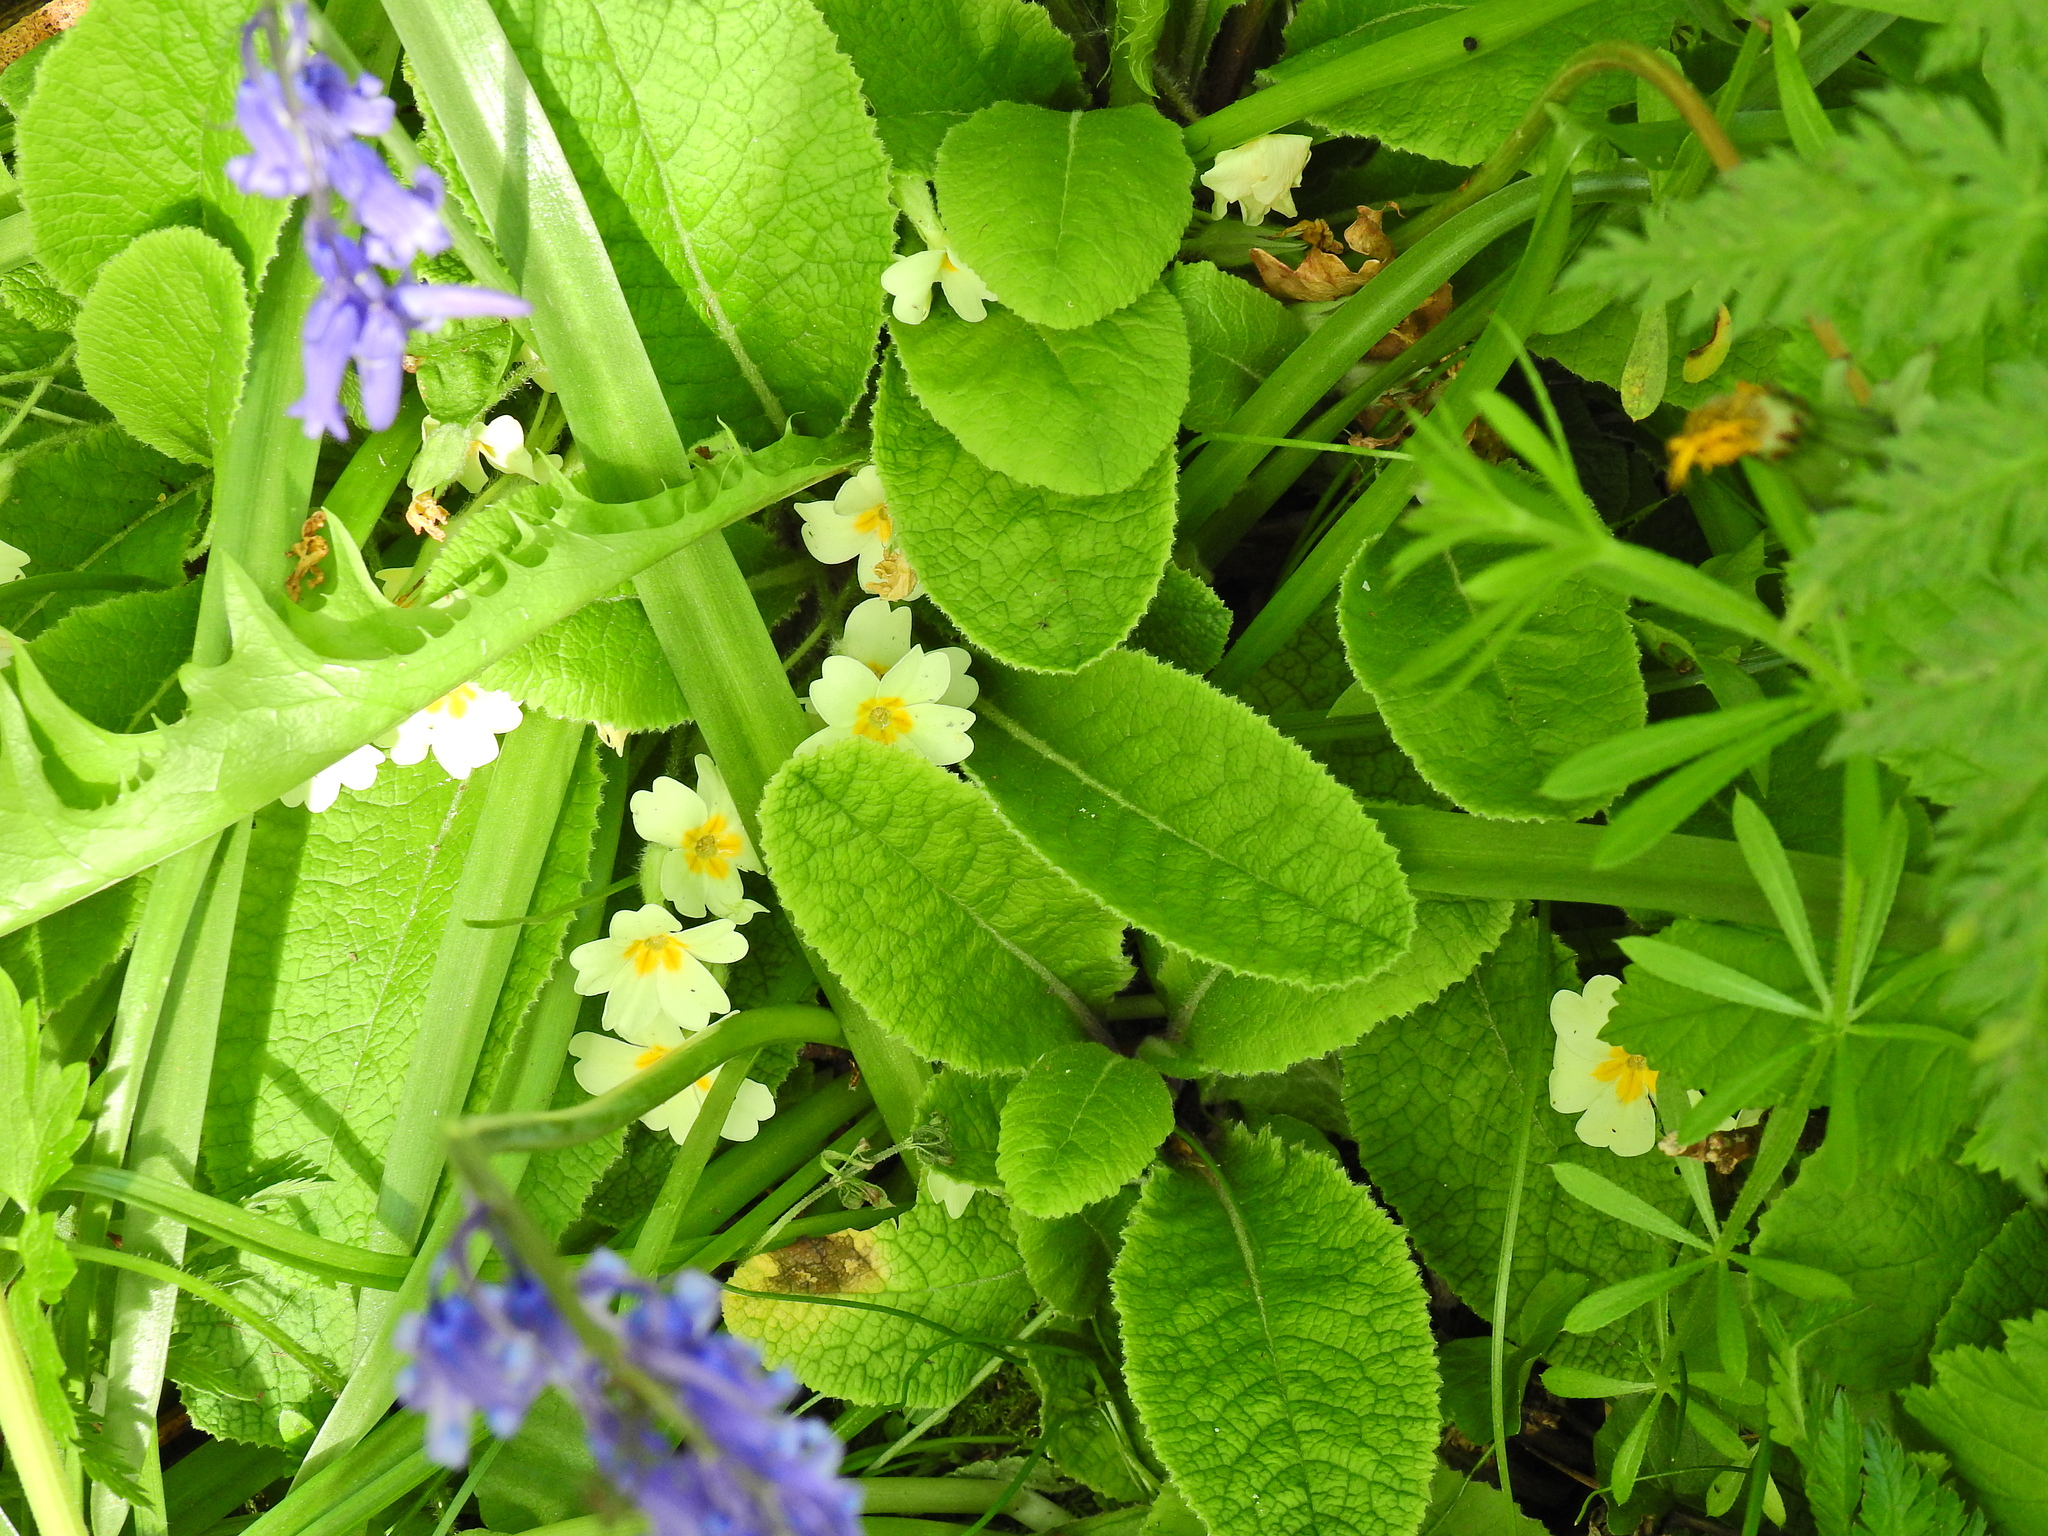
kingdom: Plantae
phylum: Tracheophyta
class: Magnoliopsida
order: Ericales
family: Primulaceae
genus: Primula
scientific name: Primula vulgaris
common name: Primrose
